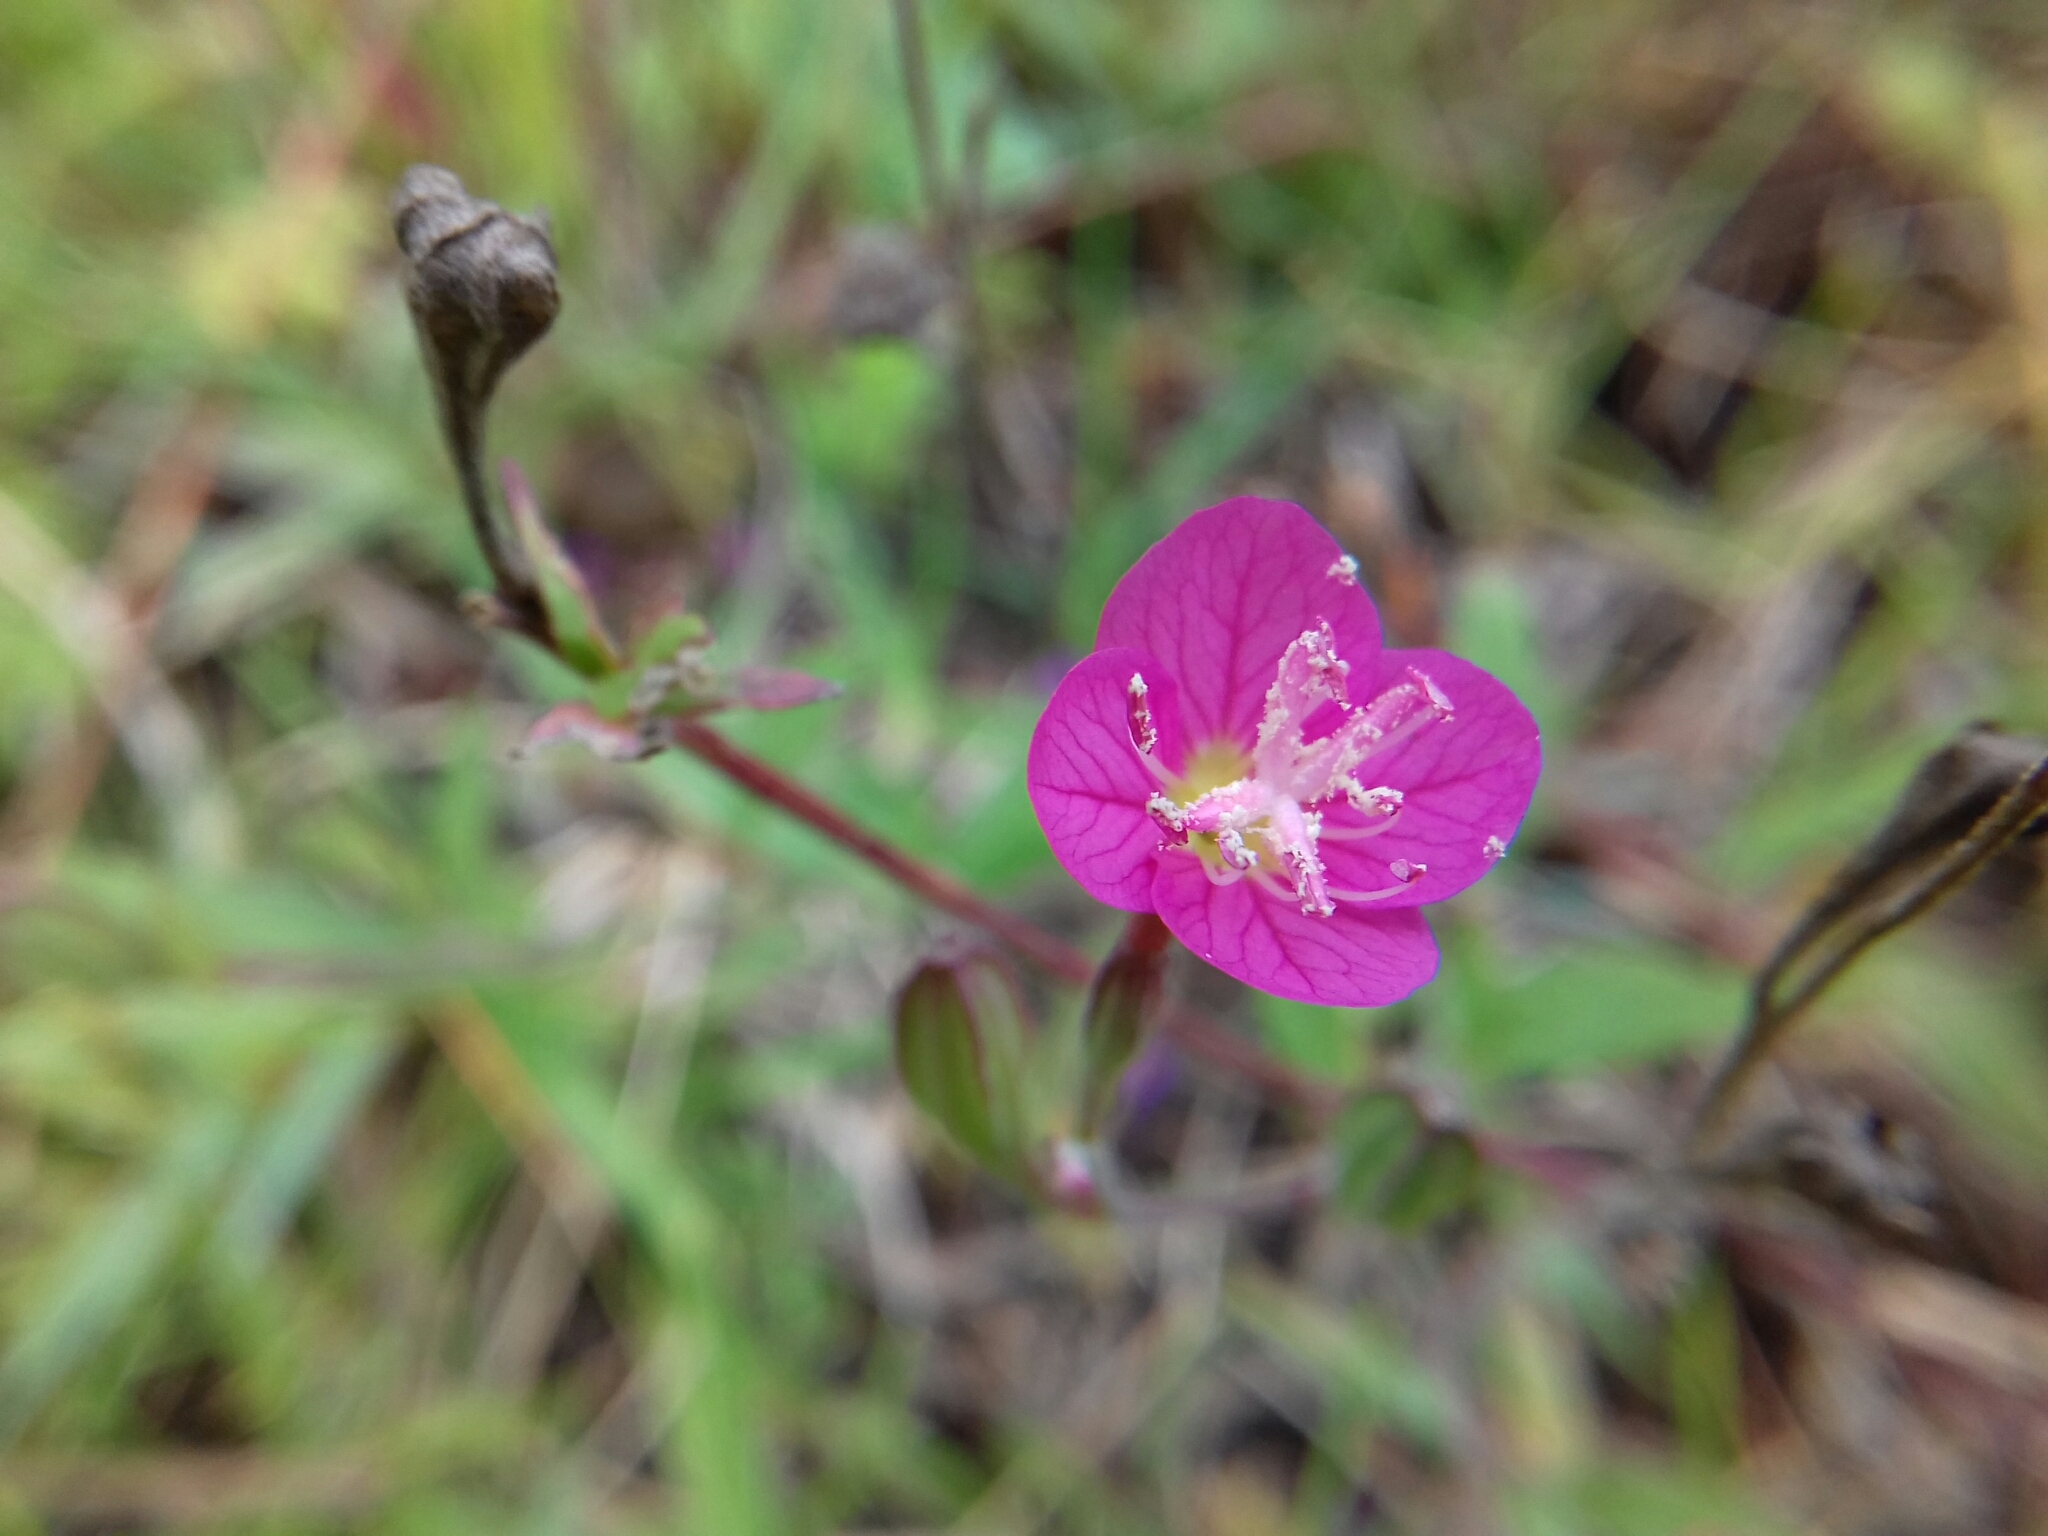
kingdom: Plantae
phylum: Tracheophyta
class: Magnoliopsida
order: Myrtales
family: Onagraceae
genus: Oenothera
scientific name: Oenothera rosea
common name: Rosy evening-primrose
